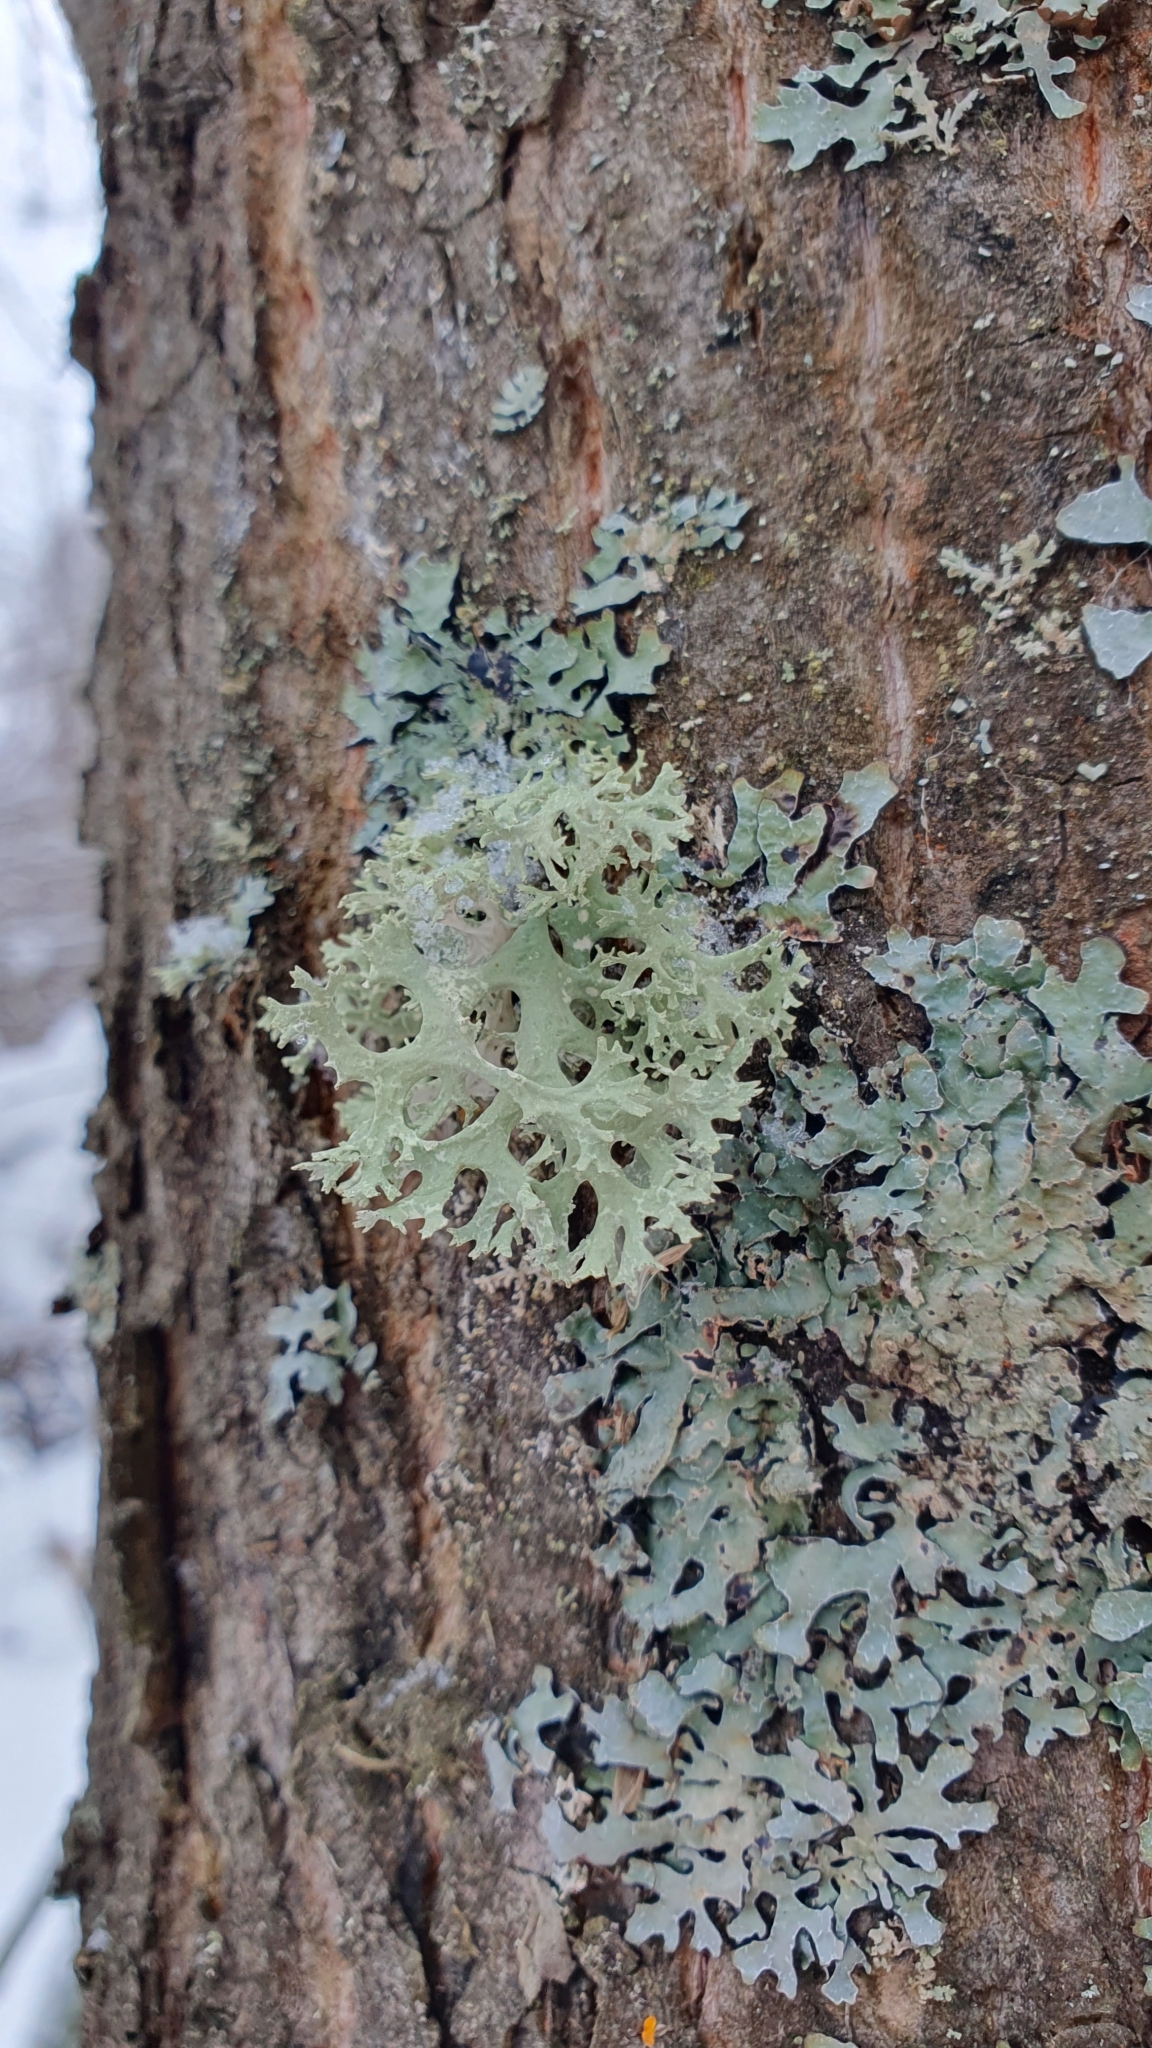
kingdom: Fungi
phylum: Ascomycota
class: Lecanoromycetes
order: Lecanorales
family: Parmeliaceae
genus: Evernia
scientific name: Evernia prunastri
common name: Oak moss
